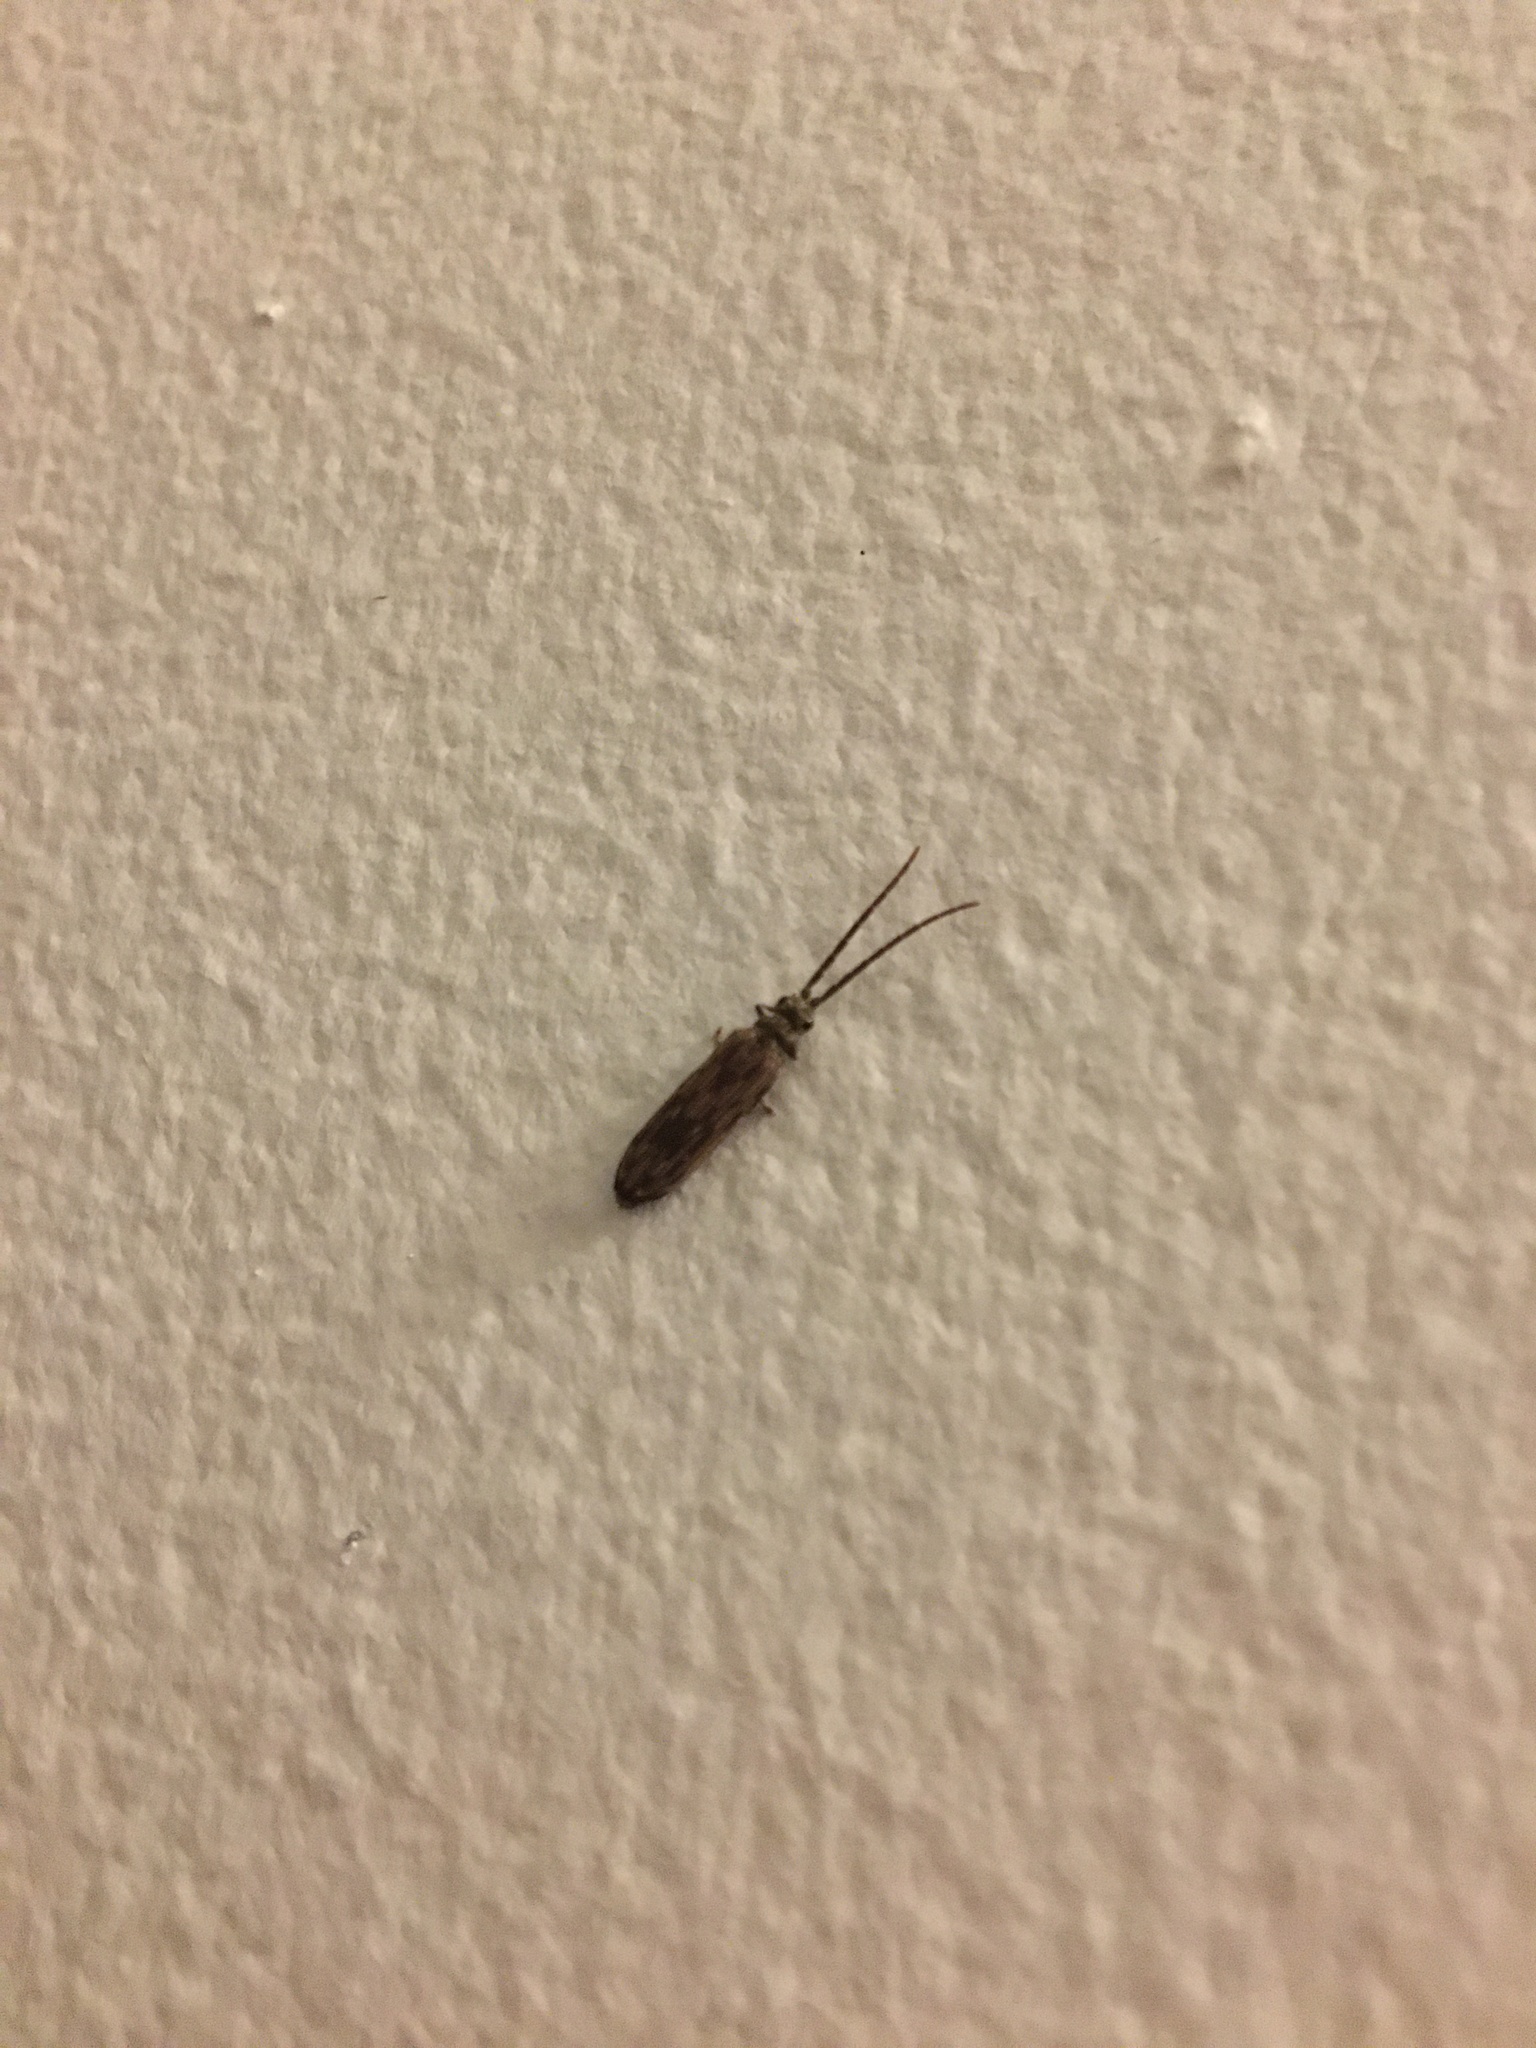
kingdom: Animalia
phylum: Arthropoda
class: Insecta
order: Coleoptera
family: Cupedidae
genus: Tenomerga
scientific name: Tenomerga cinerea
